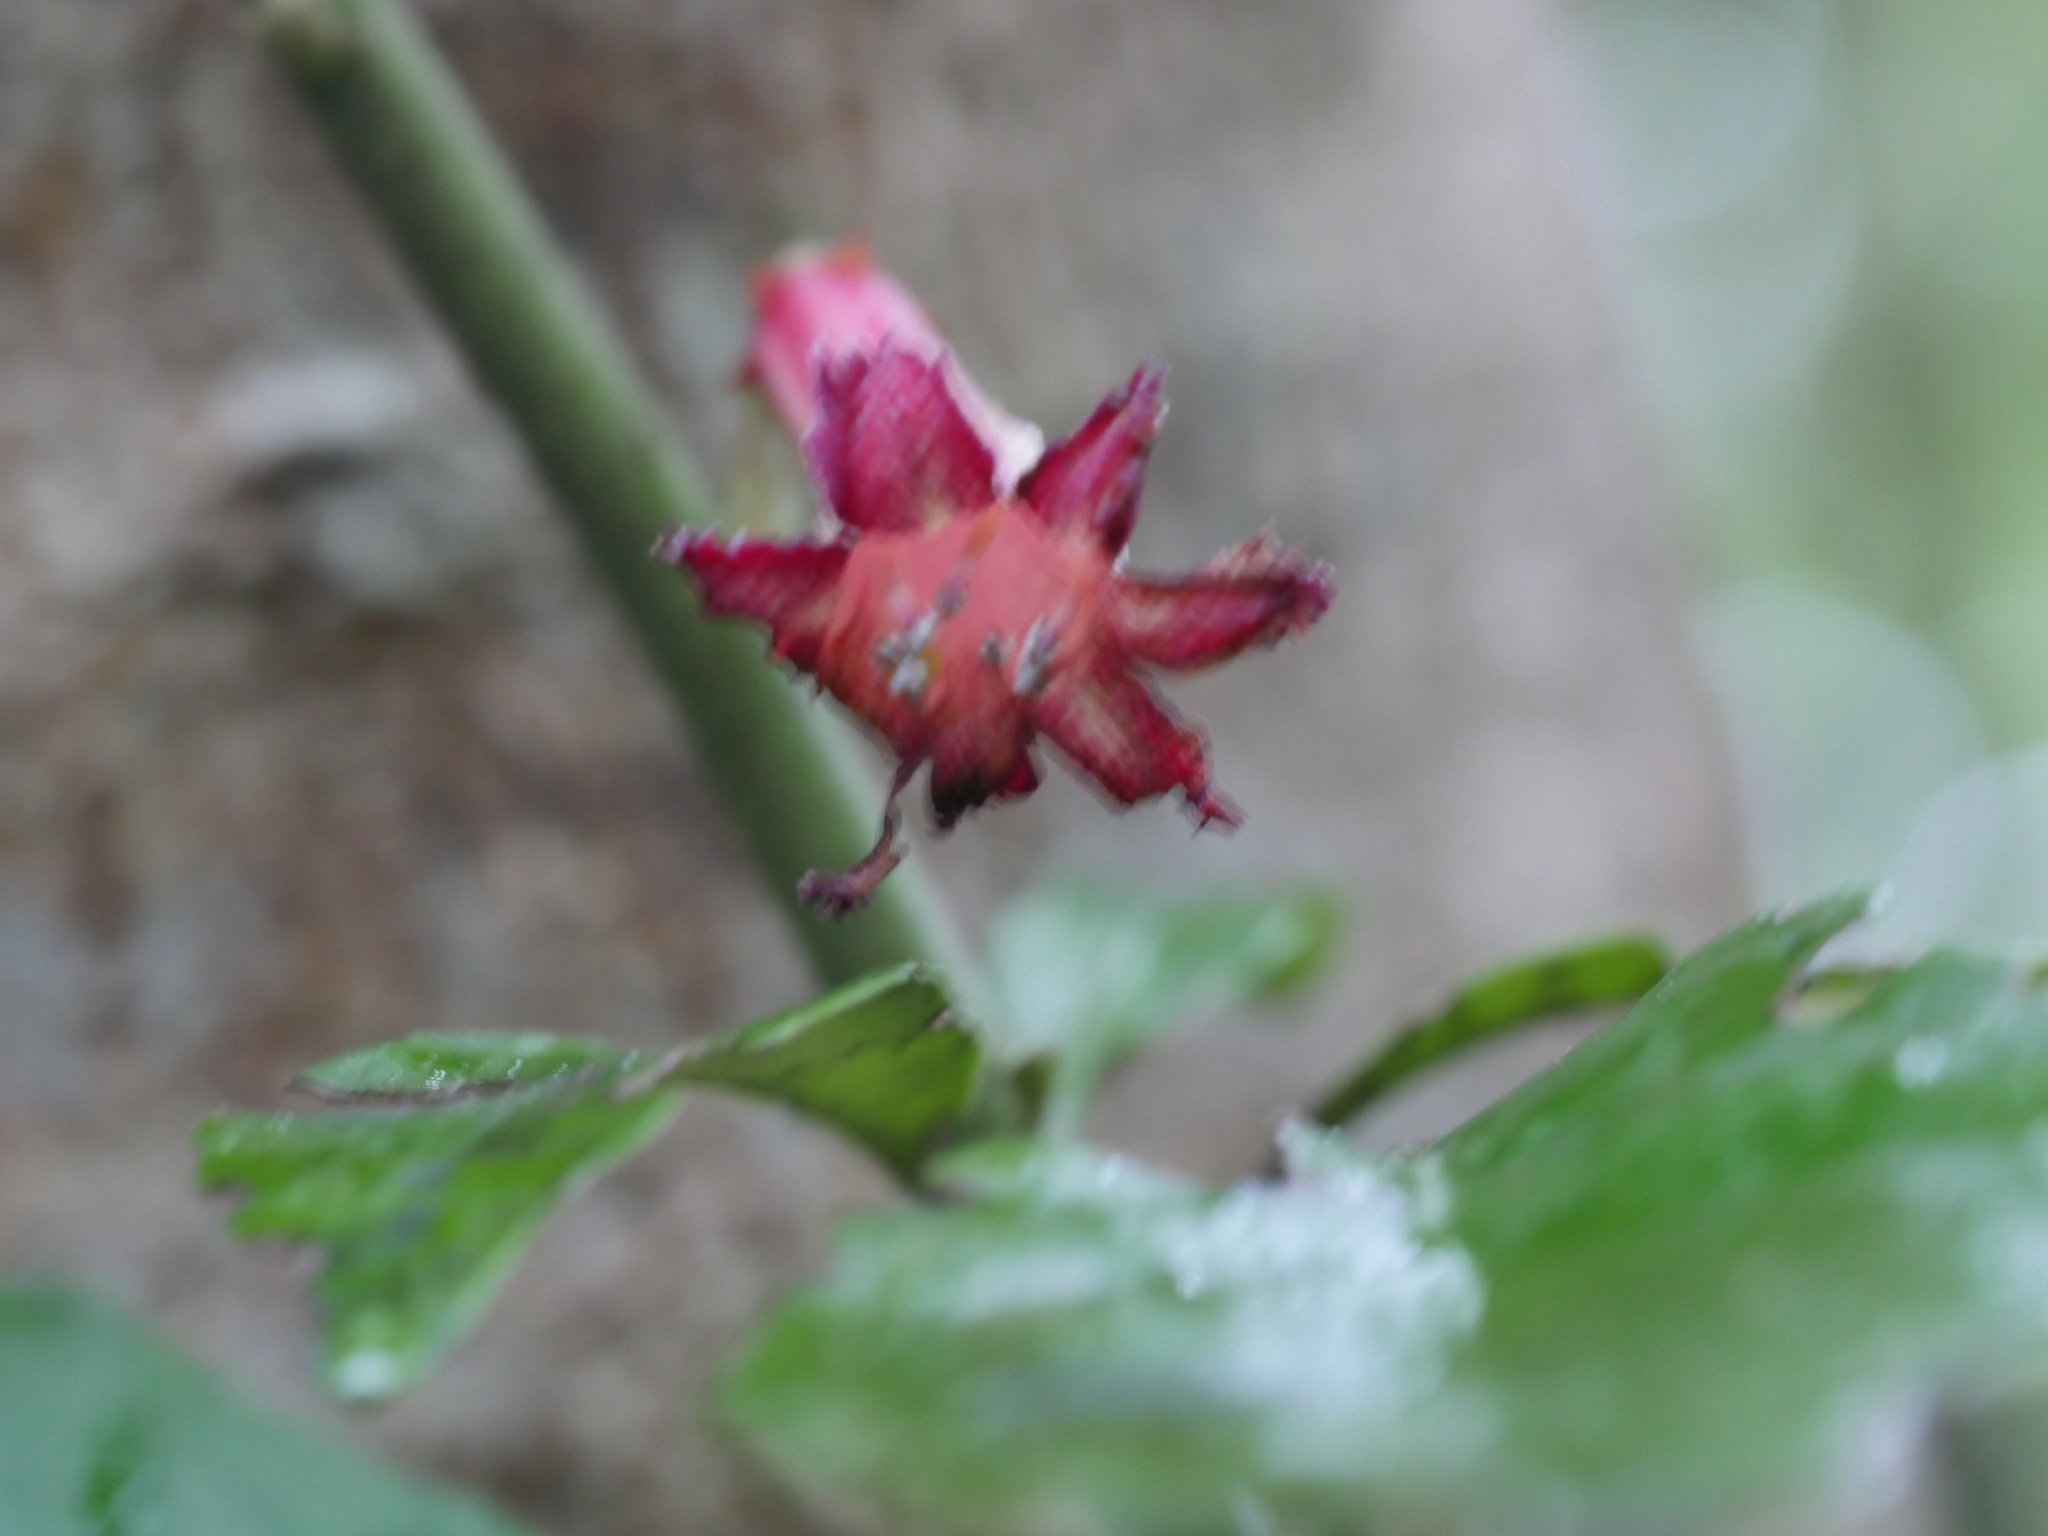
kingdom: Plantae
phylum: Tracheophyta
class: Magnoliopsida
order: Asterales
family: Alseuosmiaceae
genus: Alseuosmia
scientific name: Alseuosmia macrophylla
